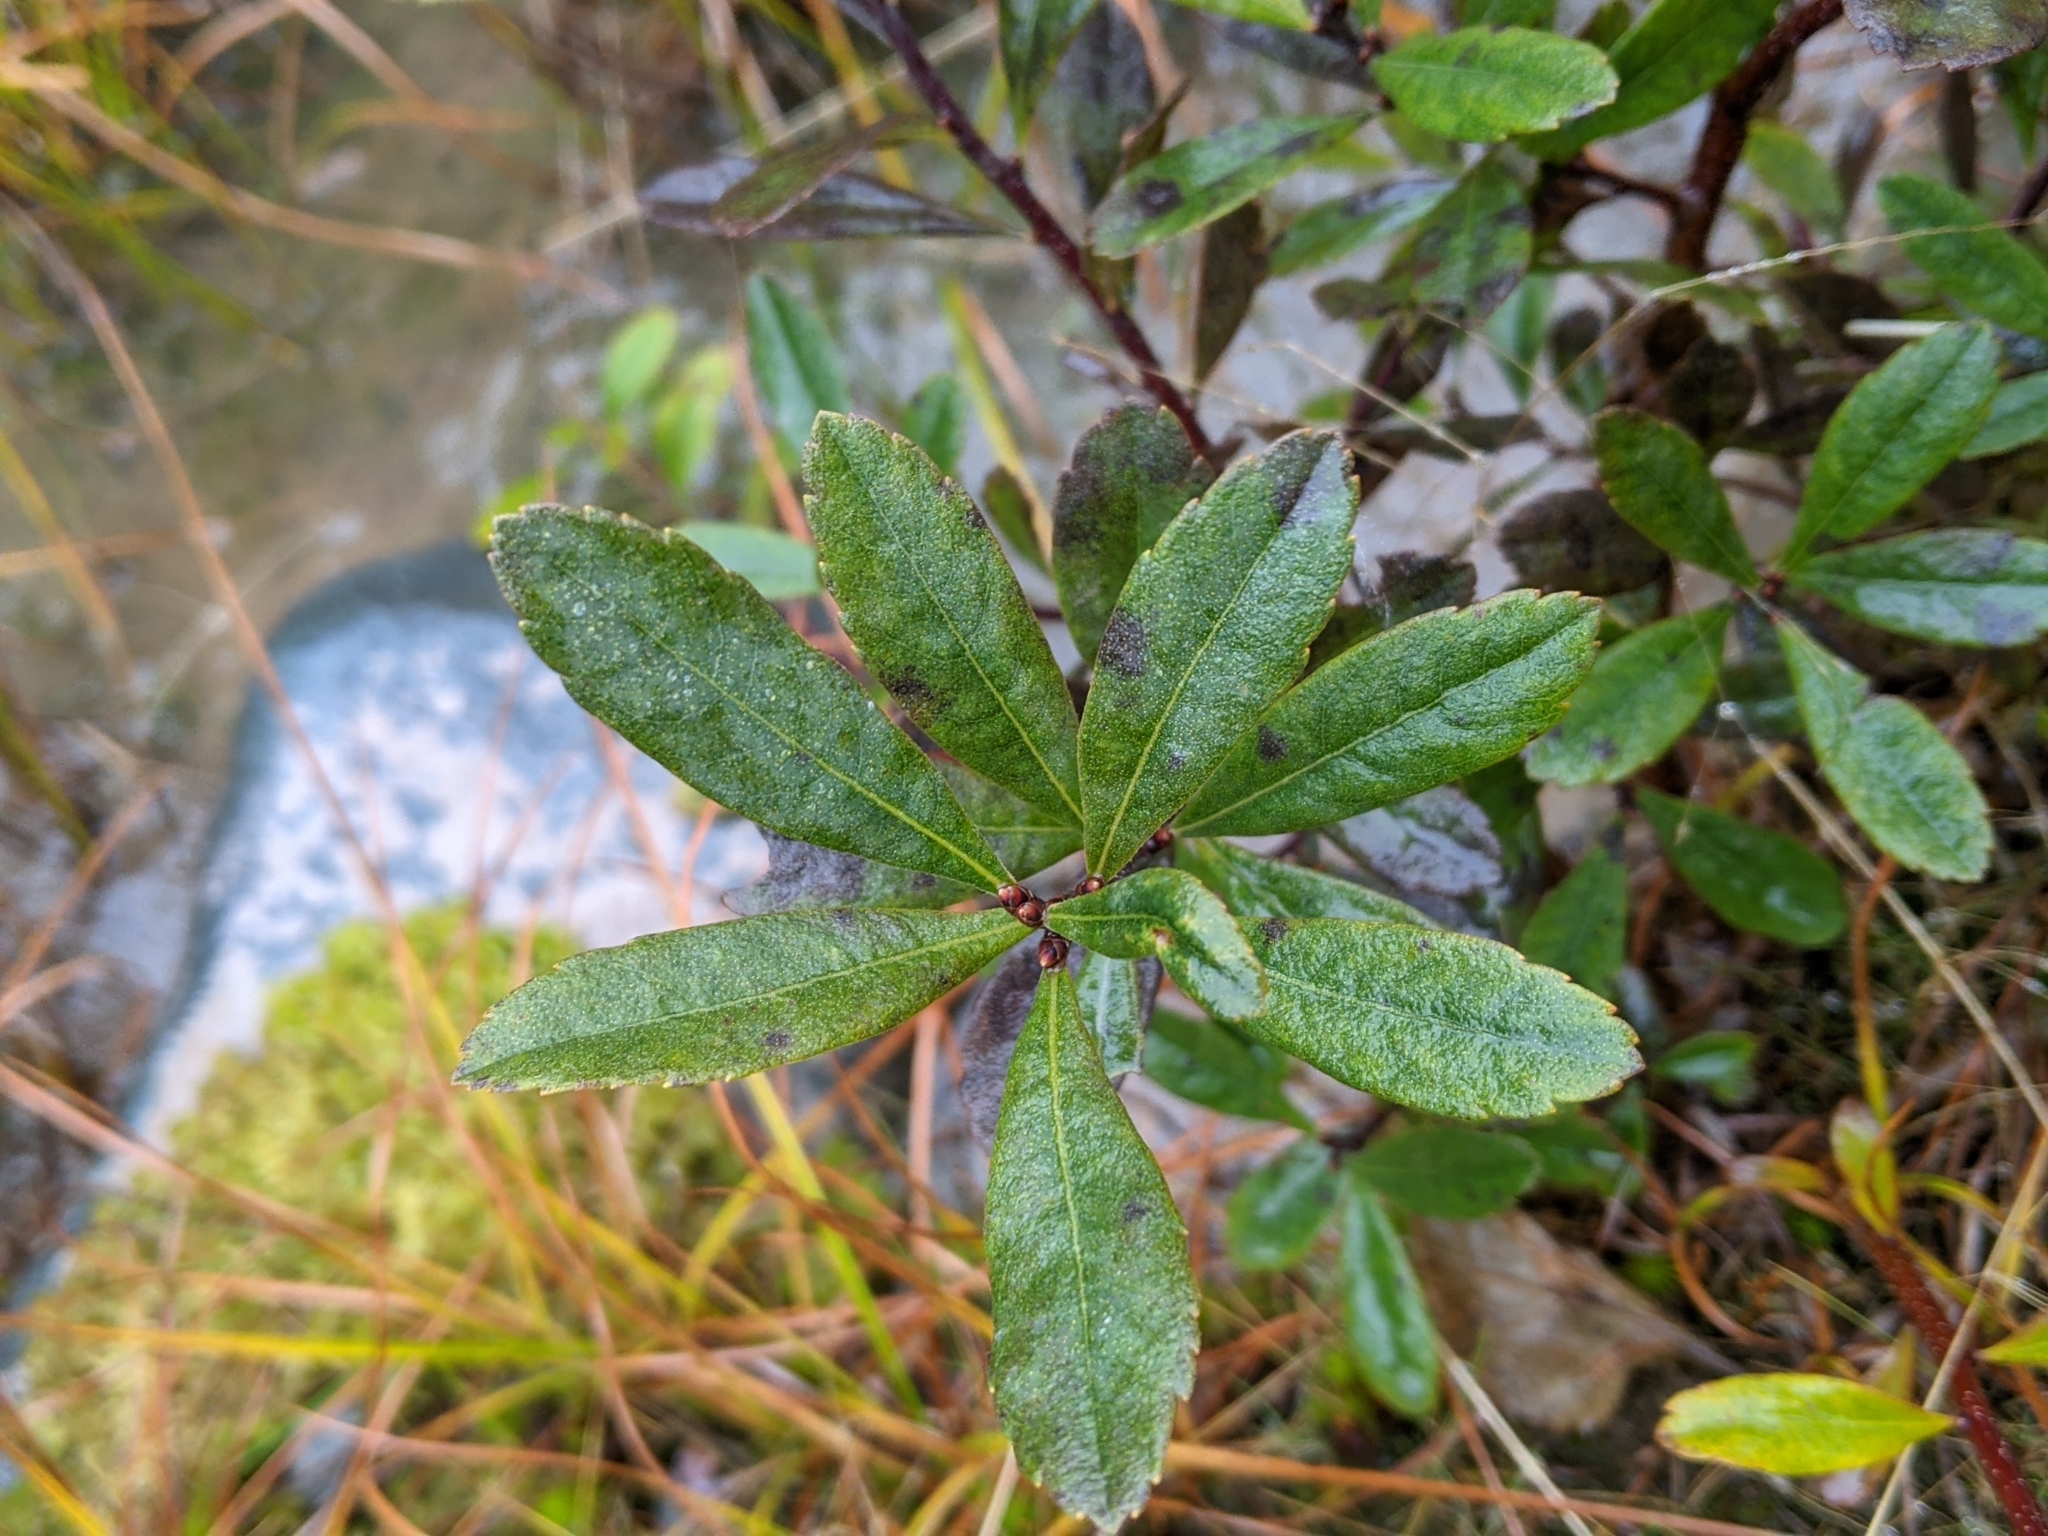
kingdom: Plantae
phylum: Tracheophyta
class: Magnoliopsida
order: Fagales
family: Myricaceae
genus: Myrica
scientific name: Myrica gale
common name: Sweet gale
